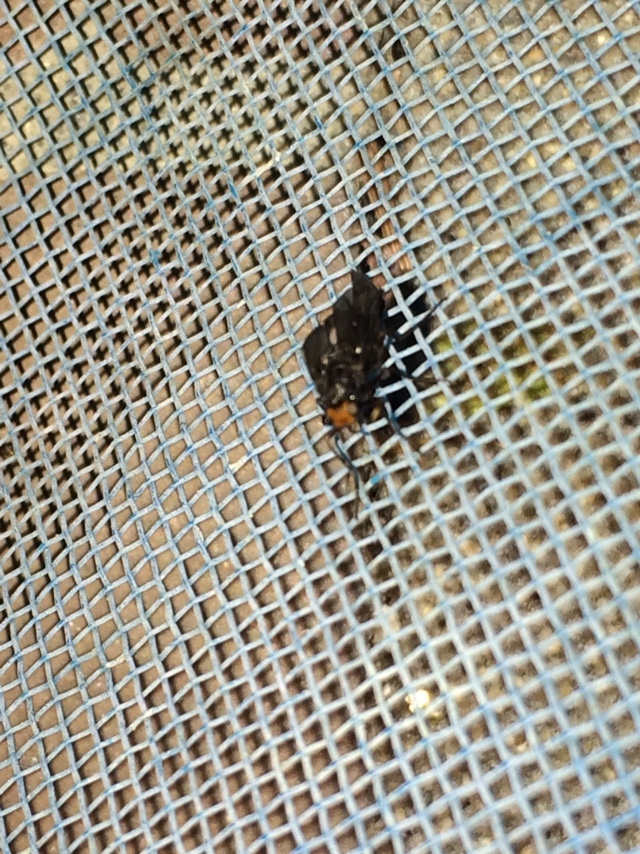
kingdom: Animalia
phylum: Arthropoda
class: Insecta
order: Diptera
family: Stratiomyidae
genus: Inopus
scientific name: Inopus rubriceps
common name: Soldier fly
